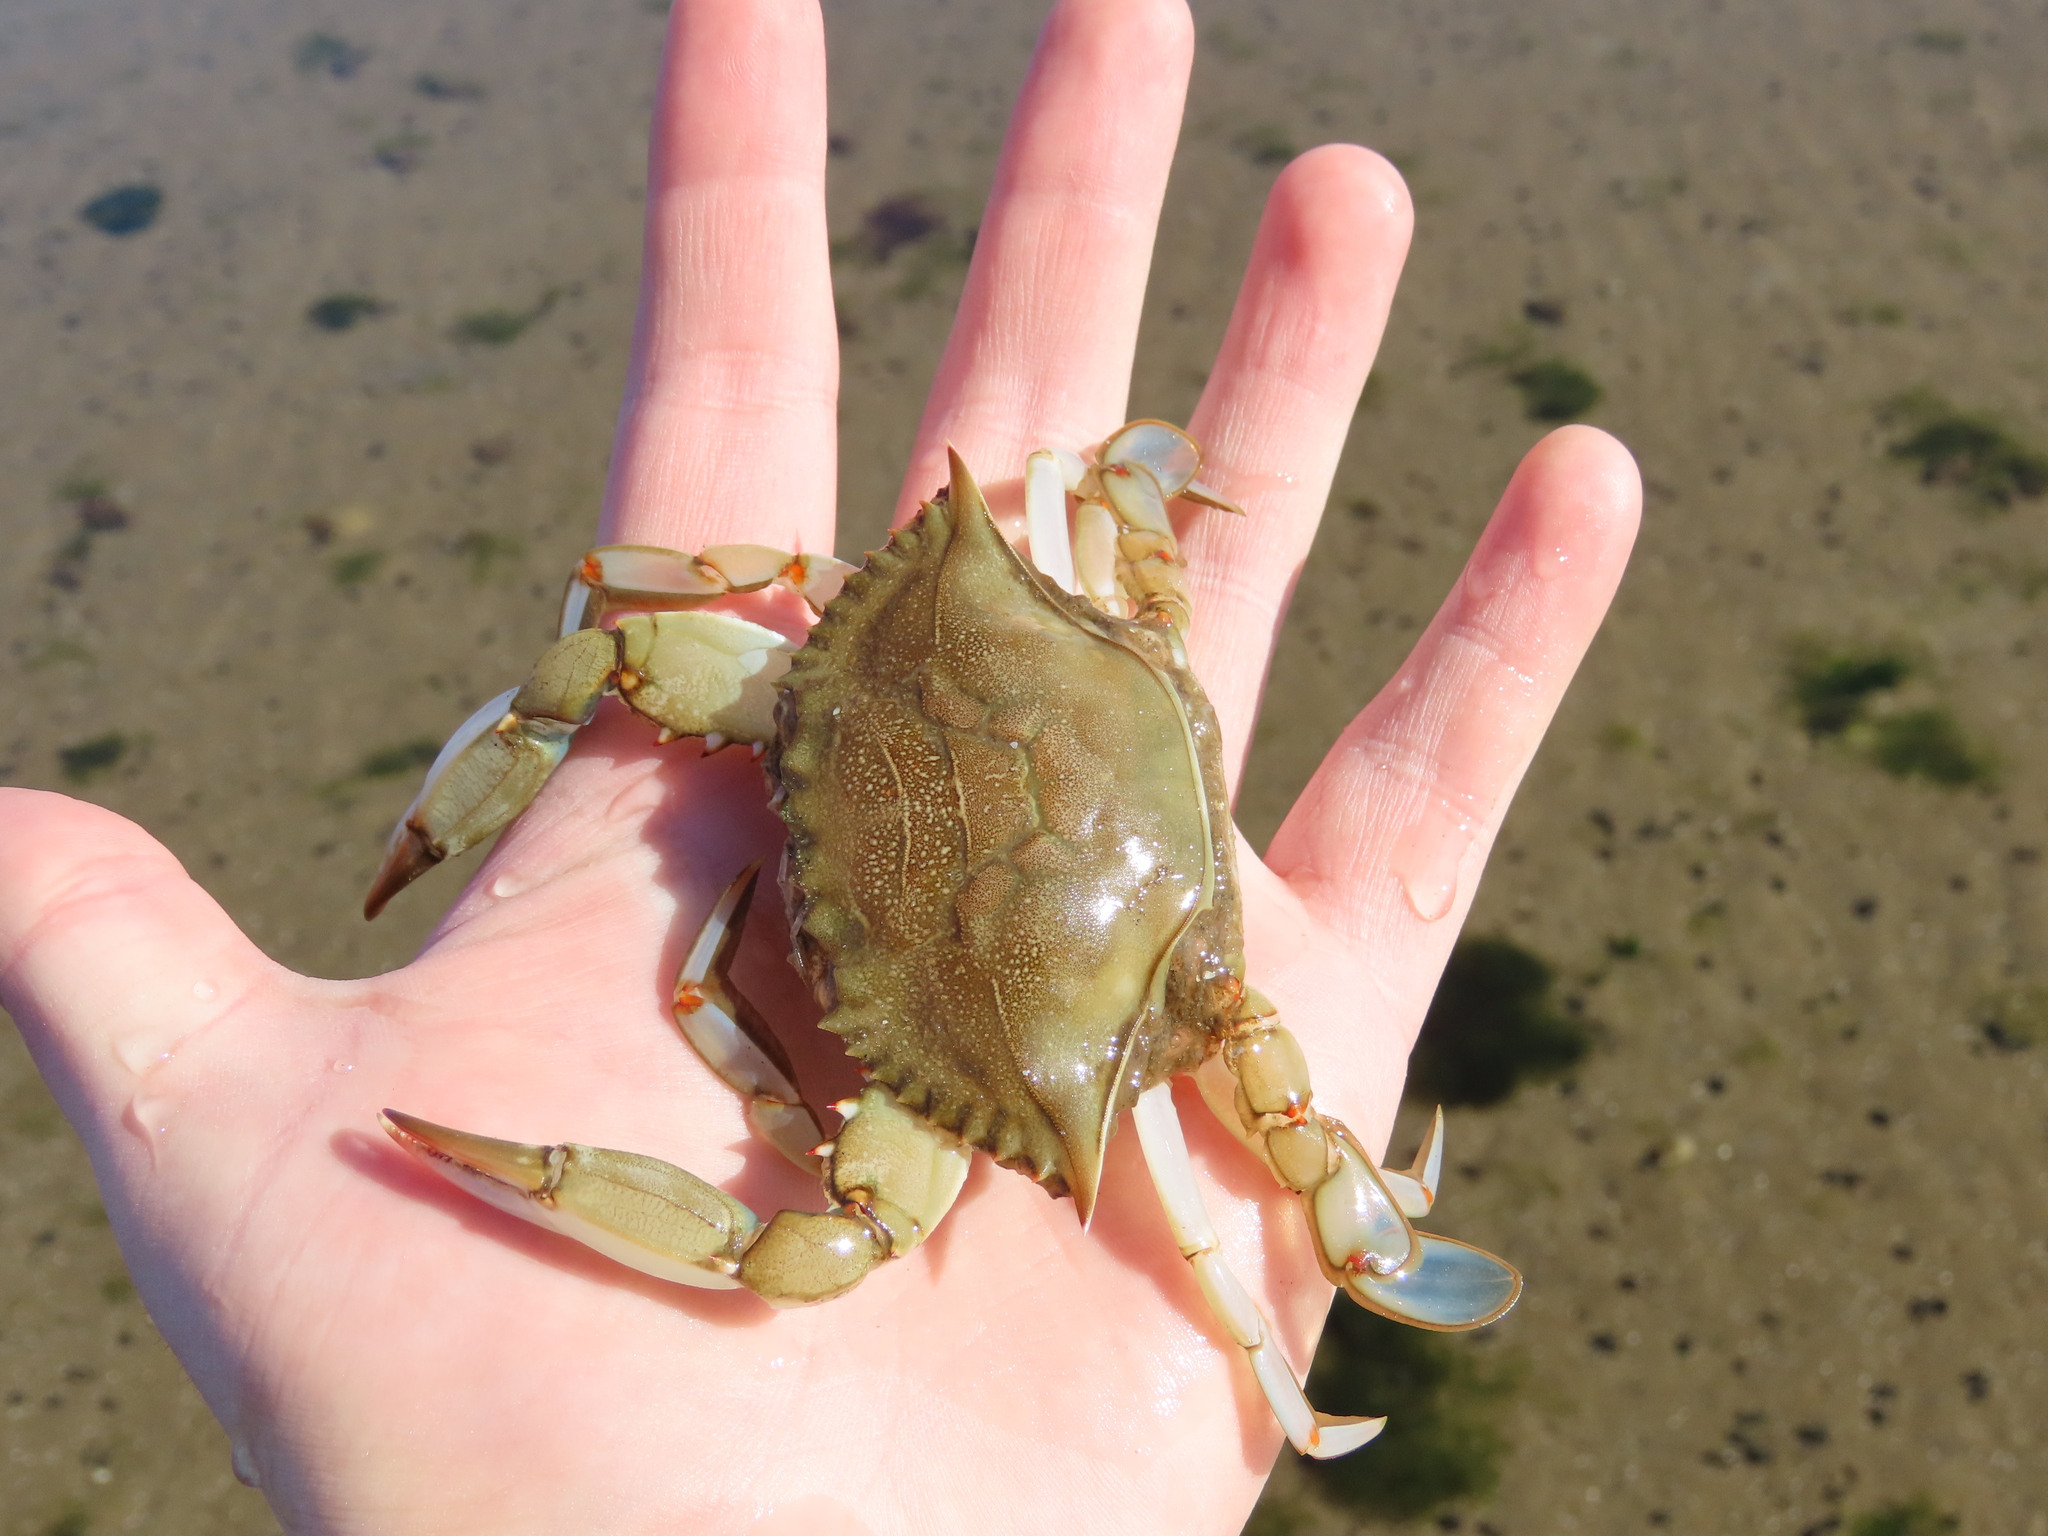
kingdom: Animalia
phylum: Arthropoda
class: Malacostraca
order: Decapoda
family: Portunidae
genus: Callinectes
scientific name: Callinectes sapidus
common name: Blue crab
